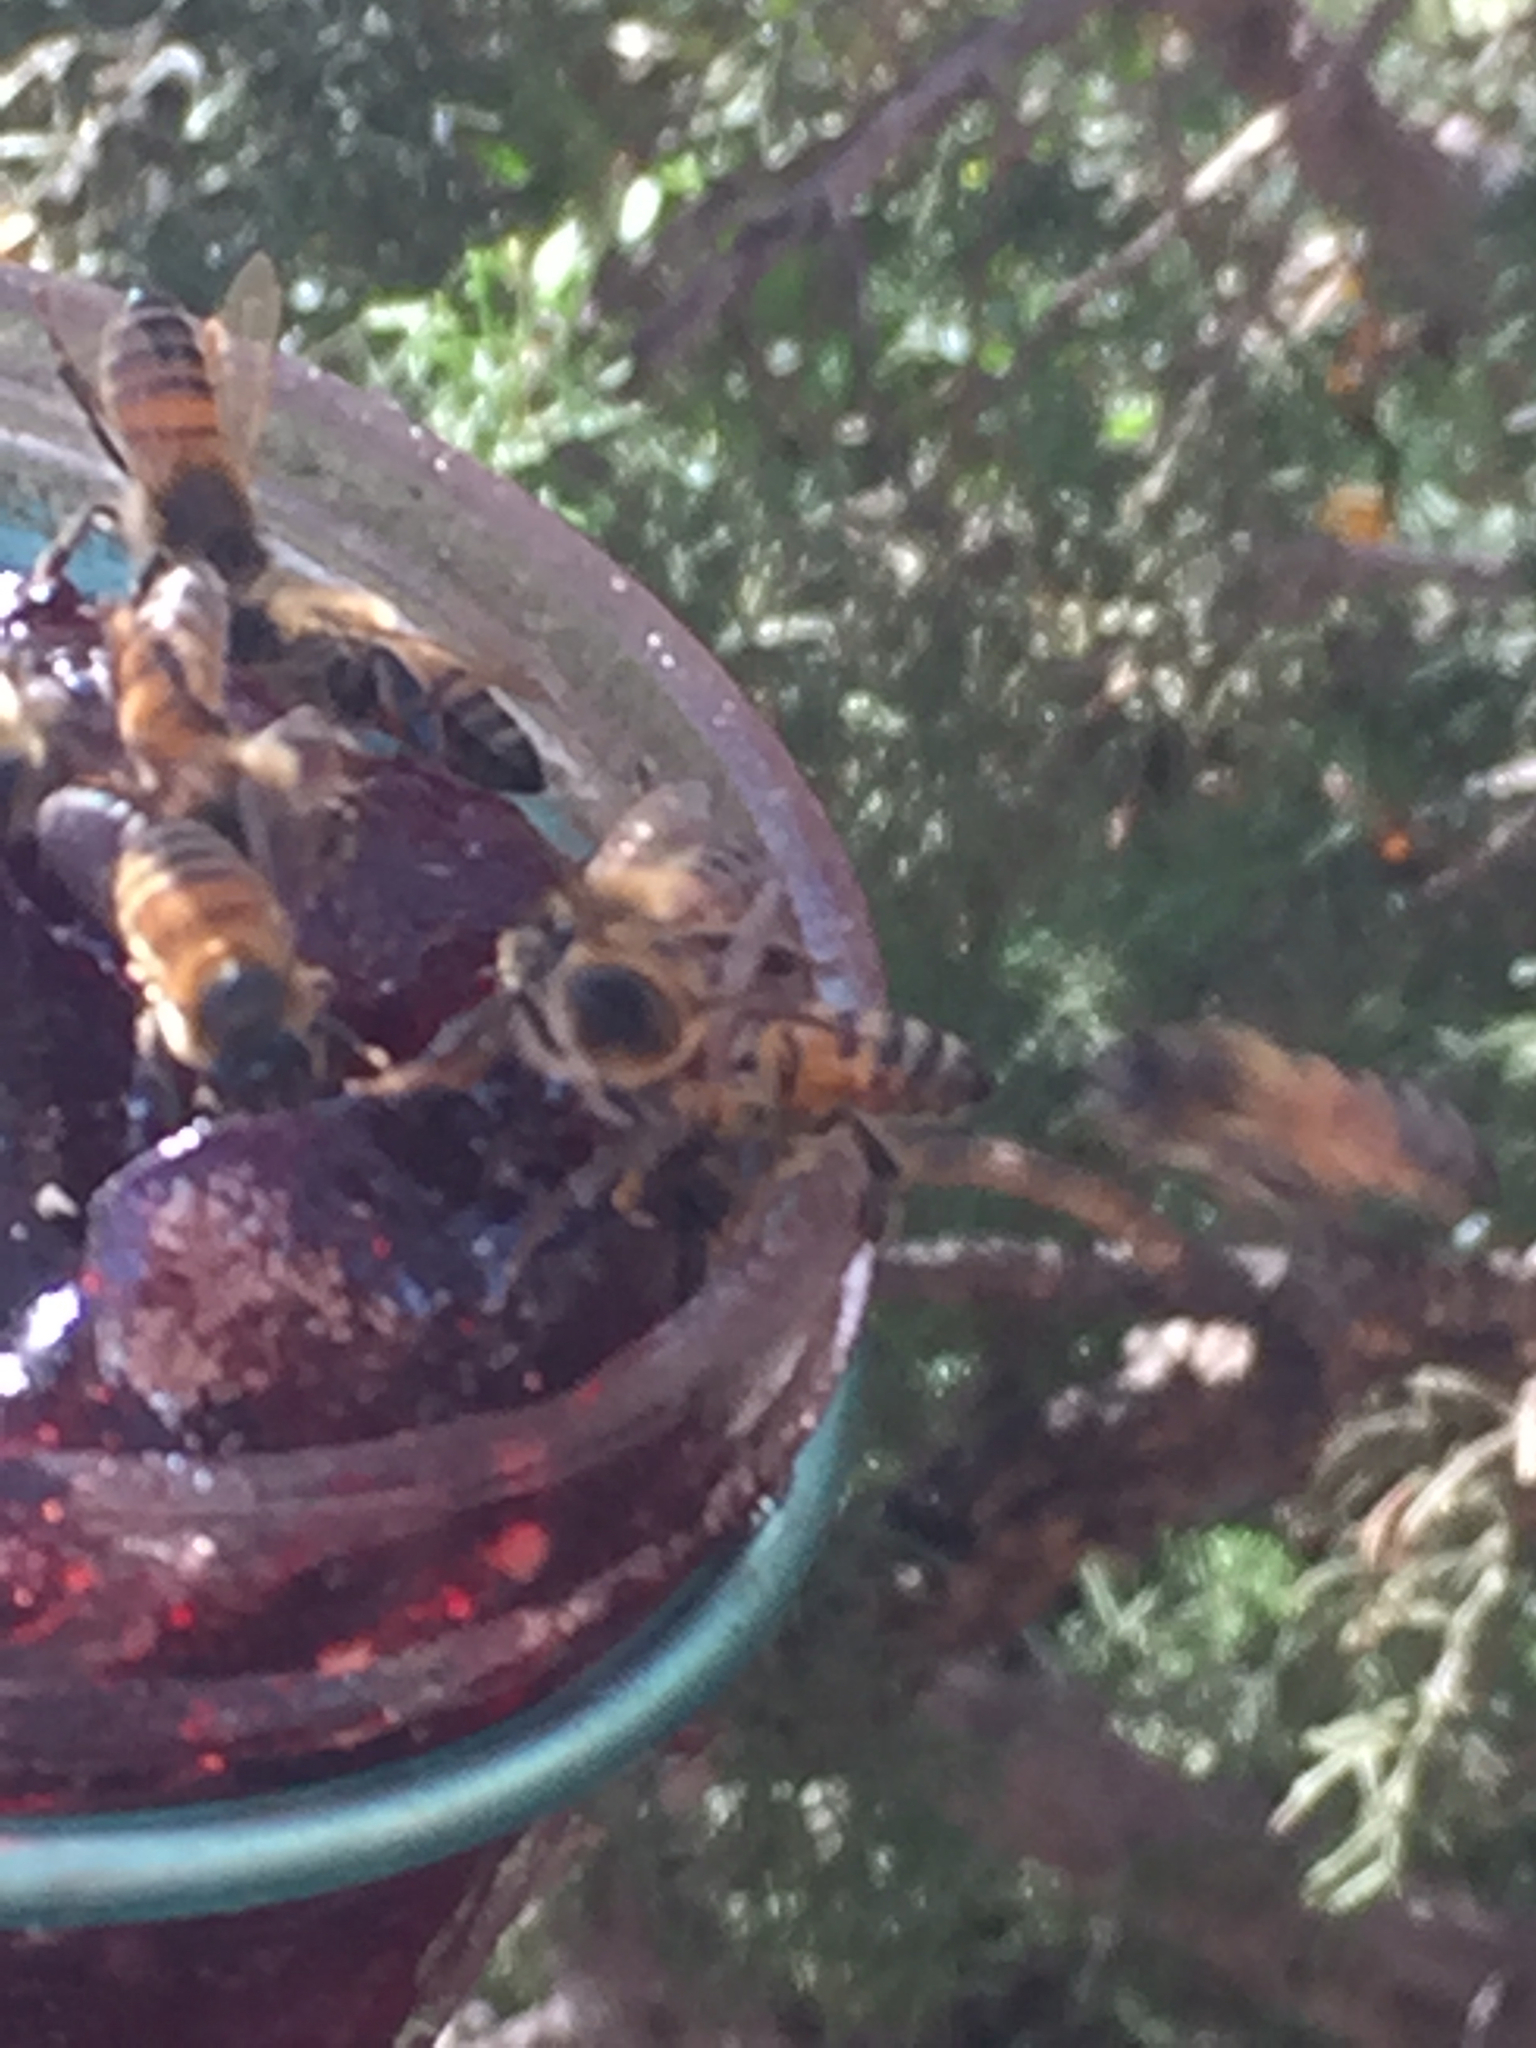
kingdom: Animalia
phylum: Arthropoda
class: Insecta
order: Hymenoptera
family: Apidae
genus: Apis
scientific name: Apis mellifera
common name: Honey bee
